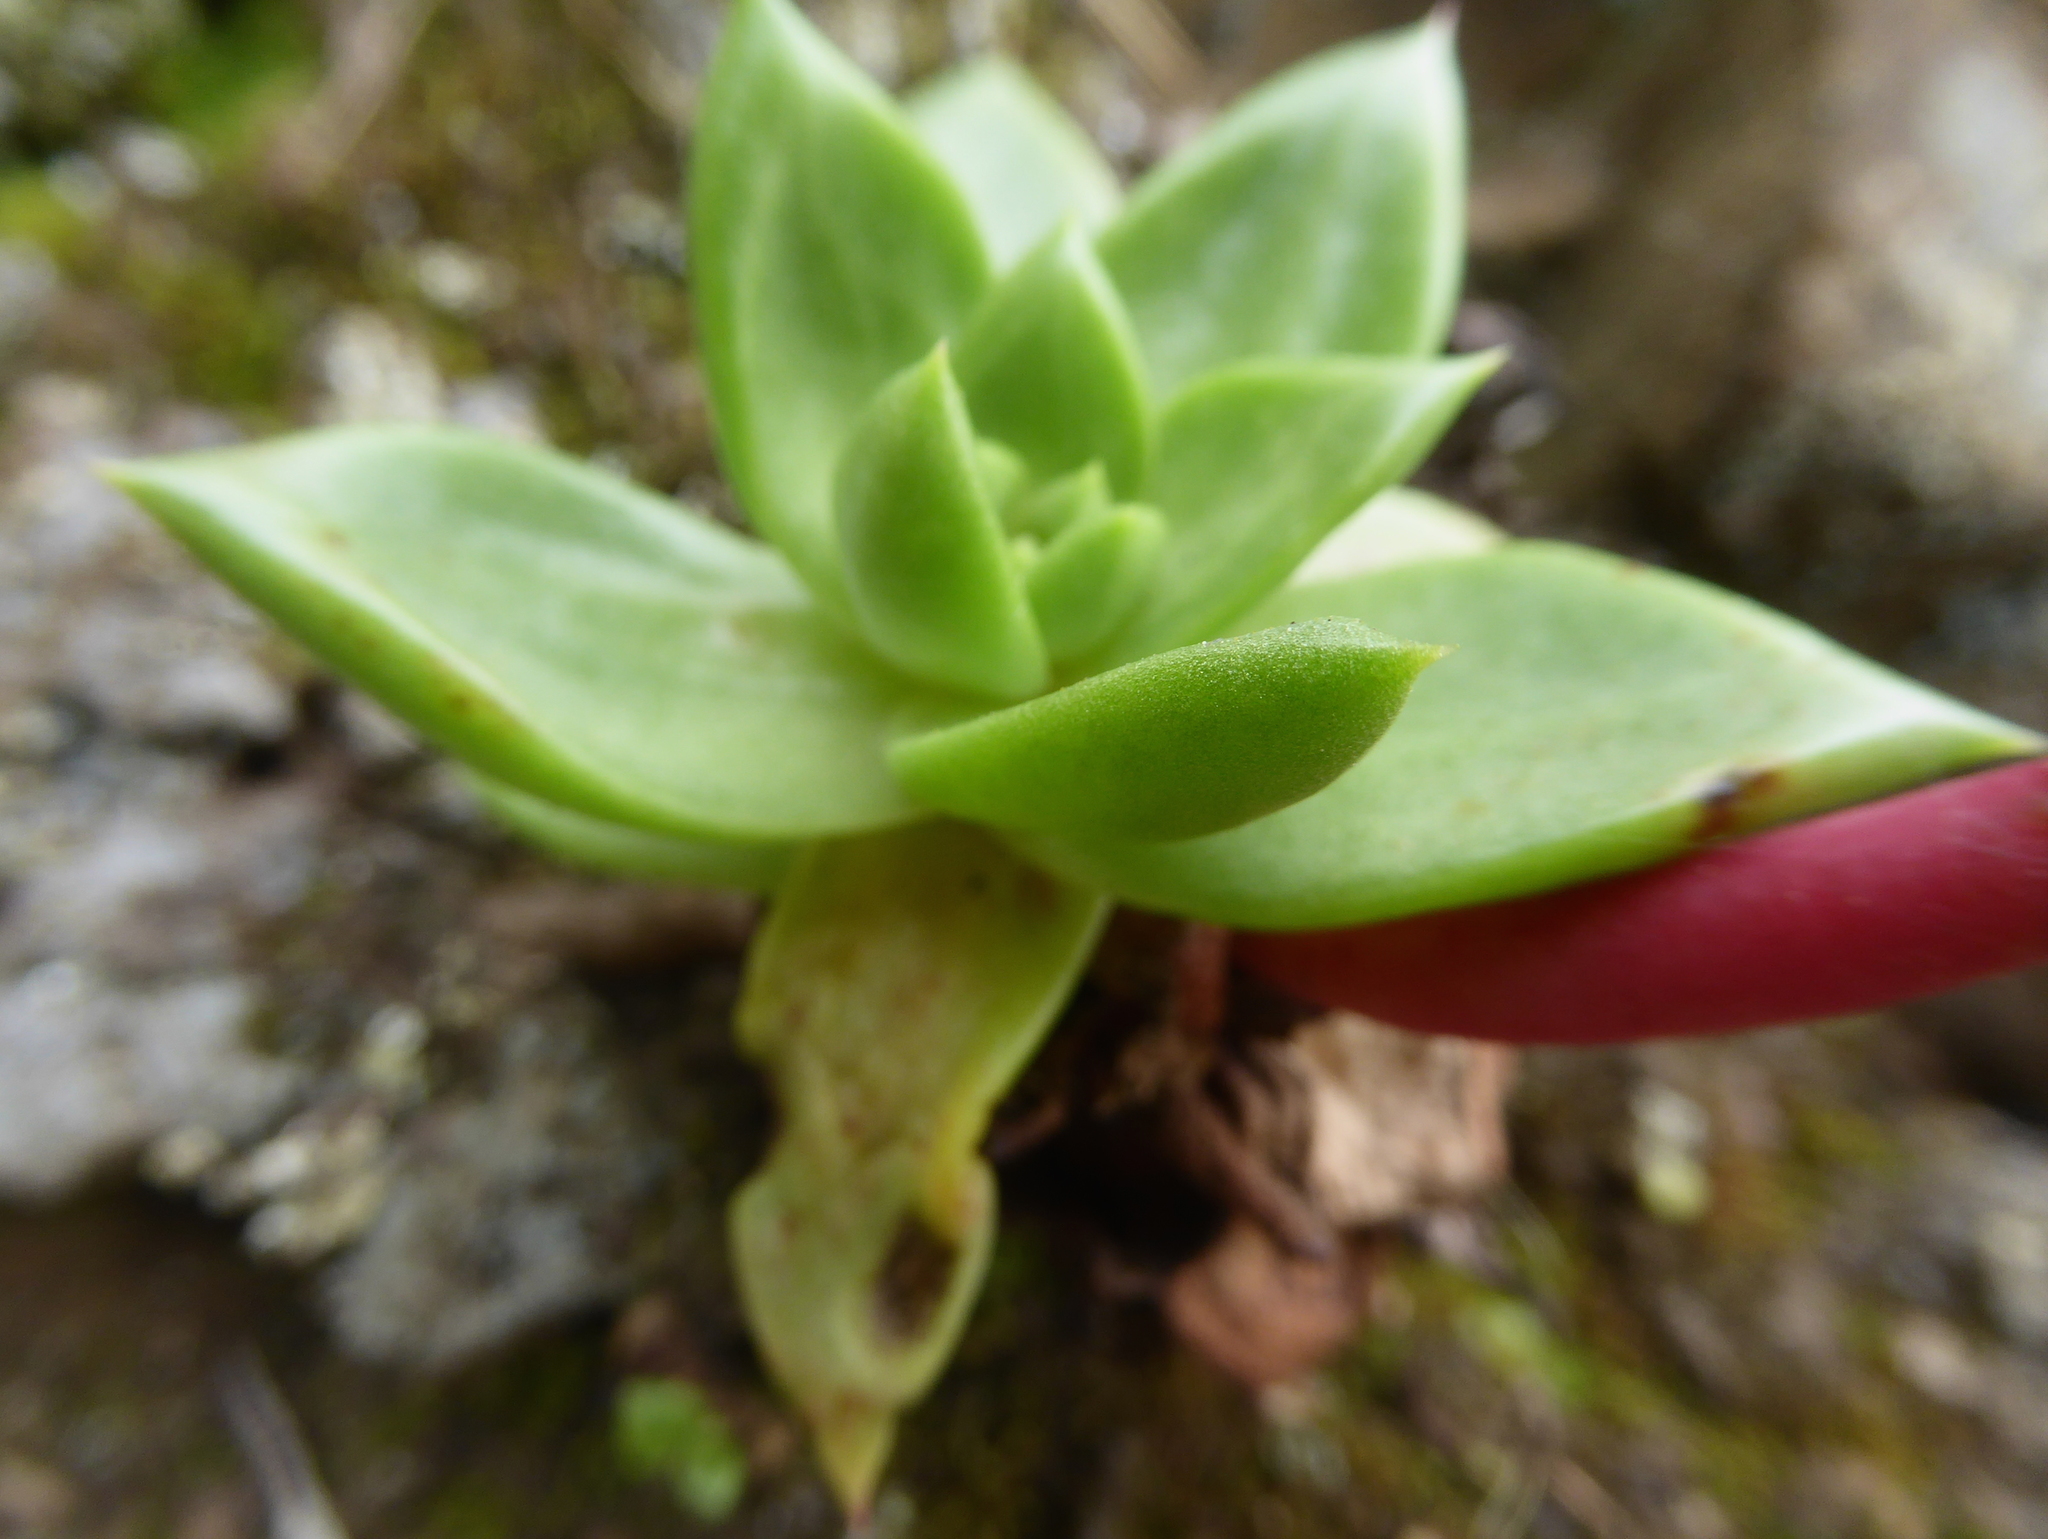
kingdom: Plantae
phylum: Tracheophyta
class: Magnoliopsida
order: Saxifragales
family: Crassulaceae
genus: Dudleya
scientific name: Dudleya farinosa
